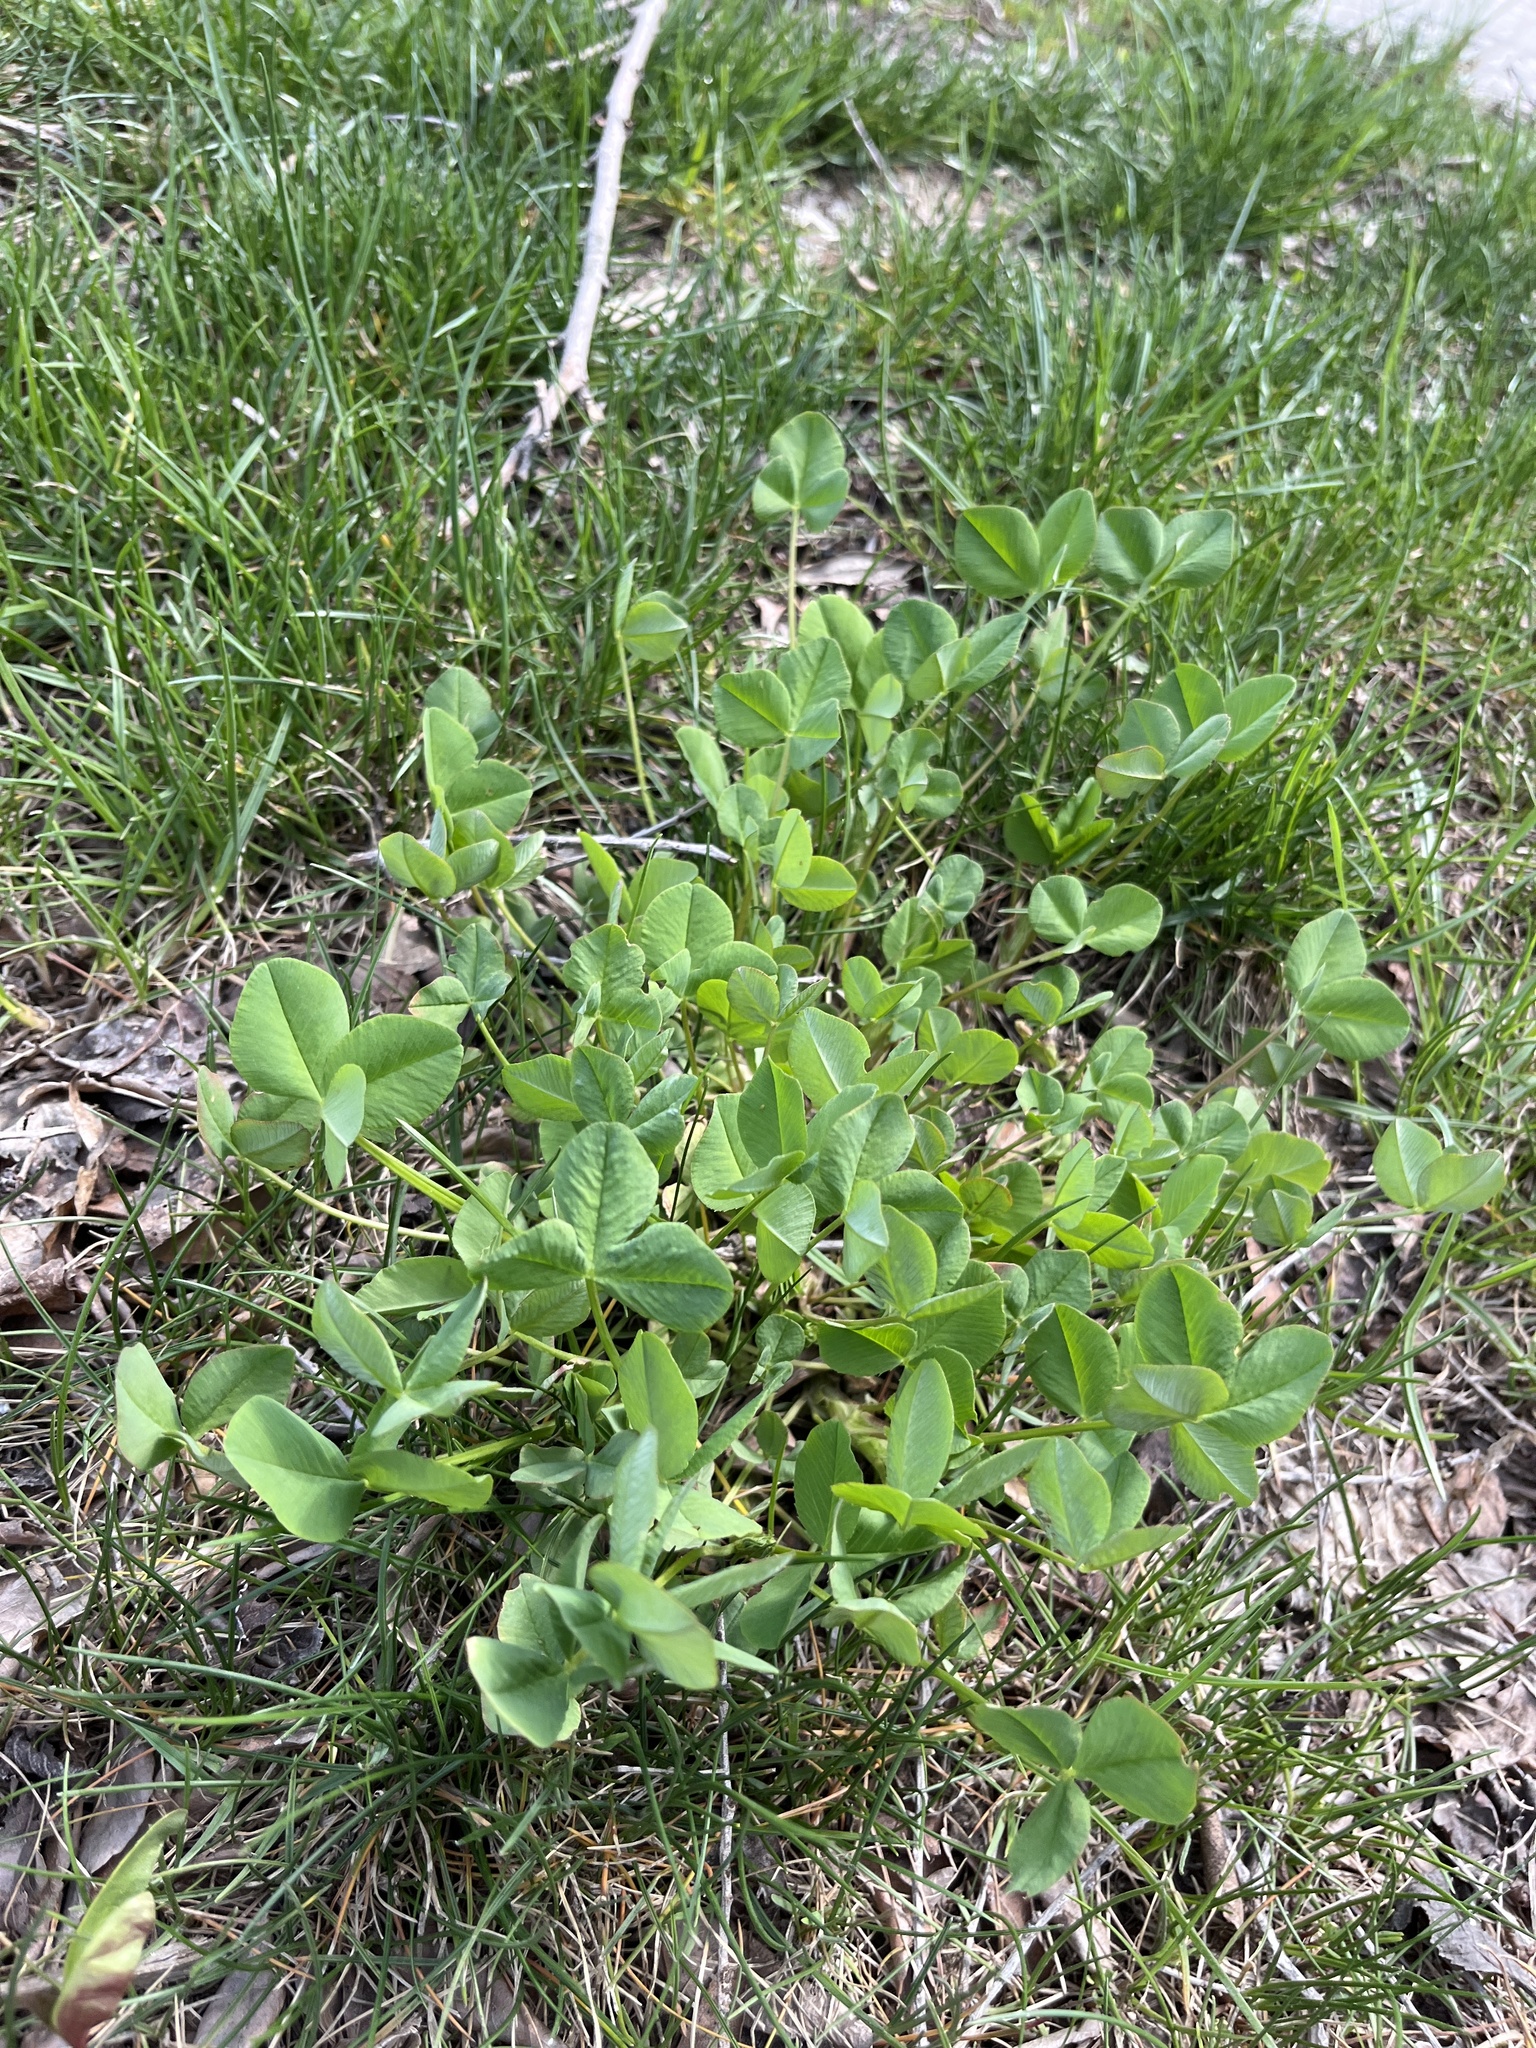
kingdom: Plantae
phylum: Tracheophyta
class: Magnoliopsida
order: Fabales
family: Fabaceae
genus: Trifolium
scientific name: Trifolium hybridum
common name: Alsike clover
